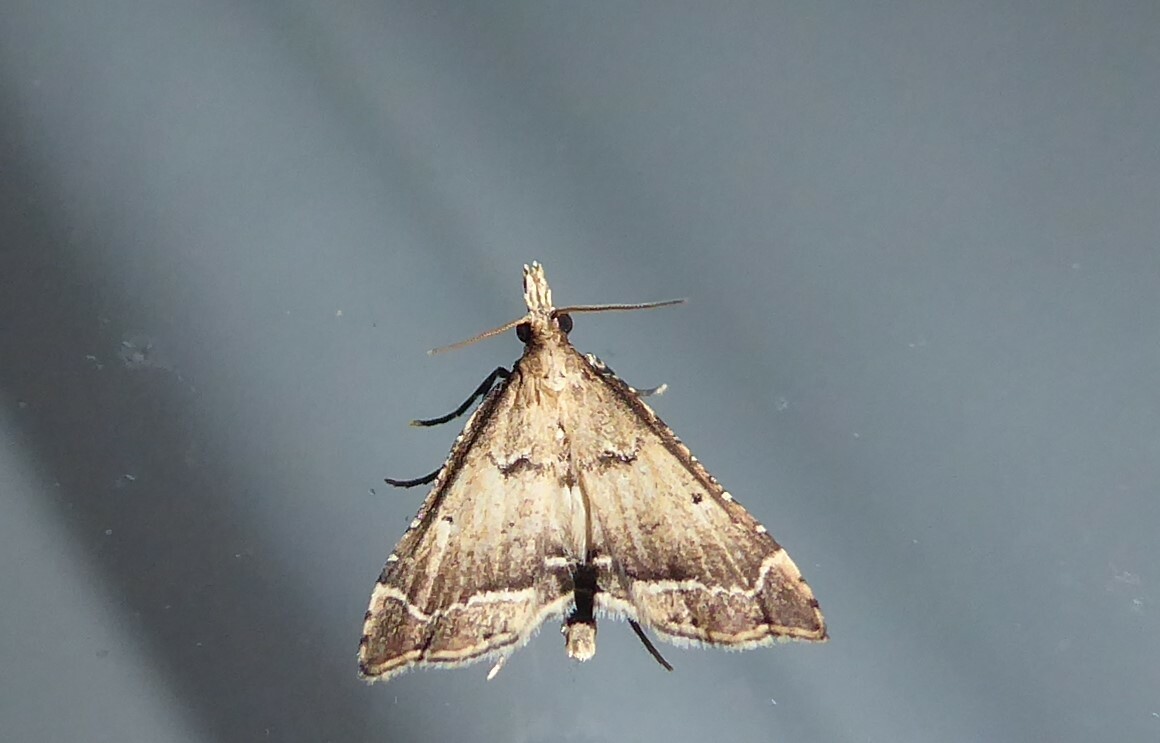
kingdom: Animalia
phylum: Arthropoda
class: Insecta
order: Lepidoptera
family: Crambidae
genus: Diplopseustis
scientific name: Diplopseustis perieresalis
